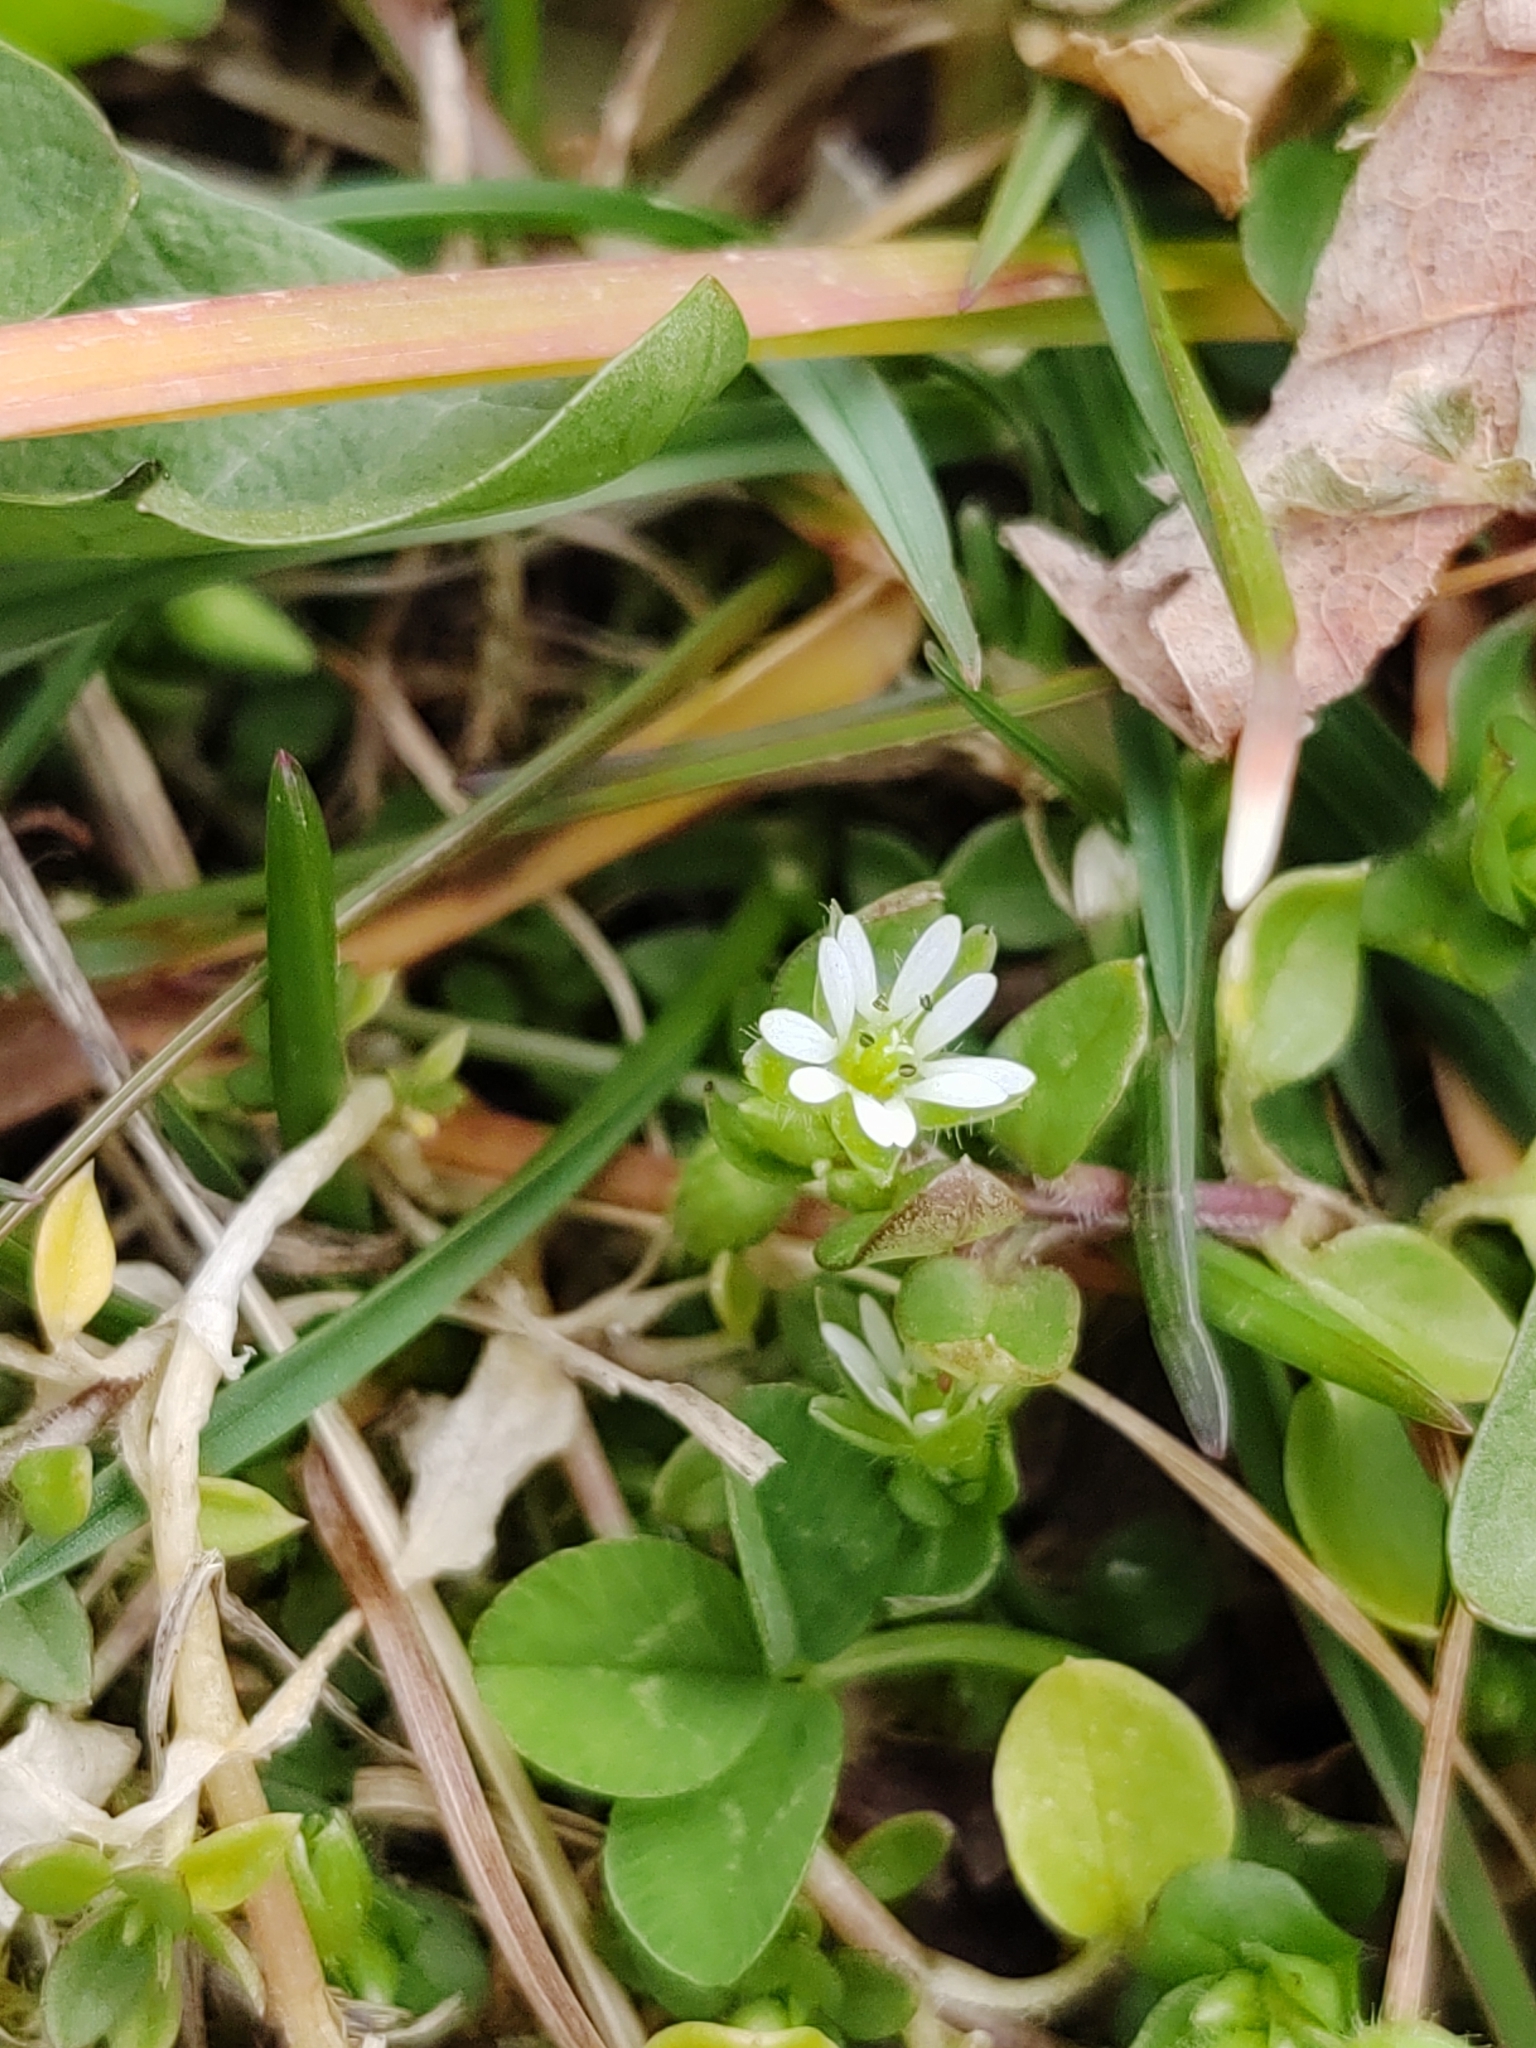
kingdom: Plantae
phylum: Tracheophyta
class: Magnoliopsida
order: Caryophyllales
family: Caryophyllaceae
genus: Stellaria
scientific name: Stellaria media
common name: Common chickweed
